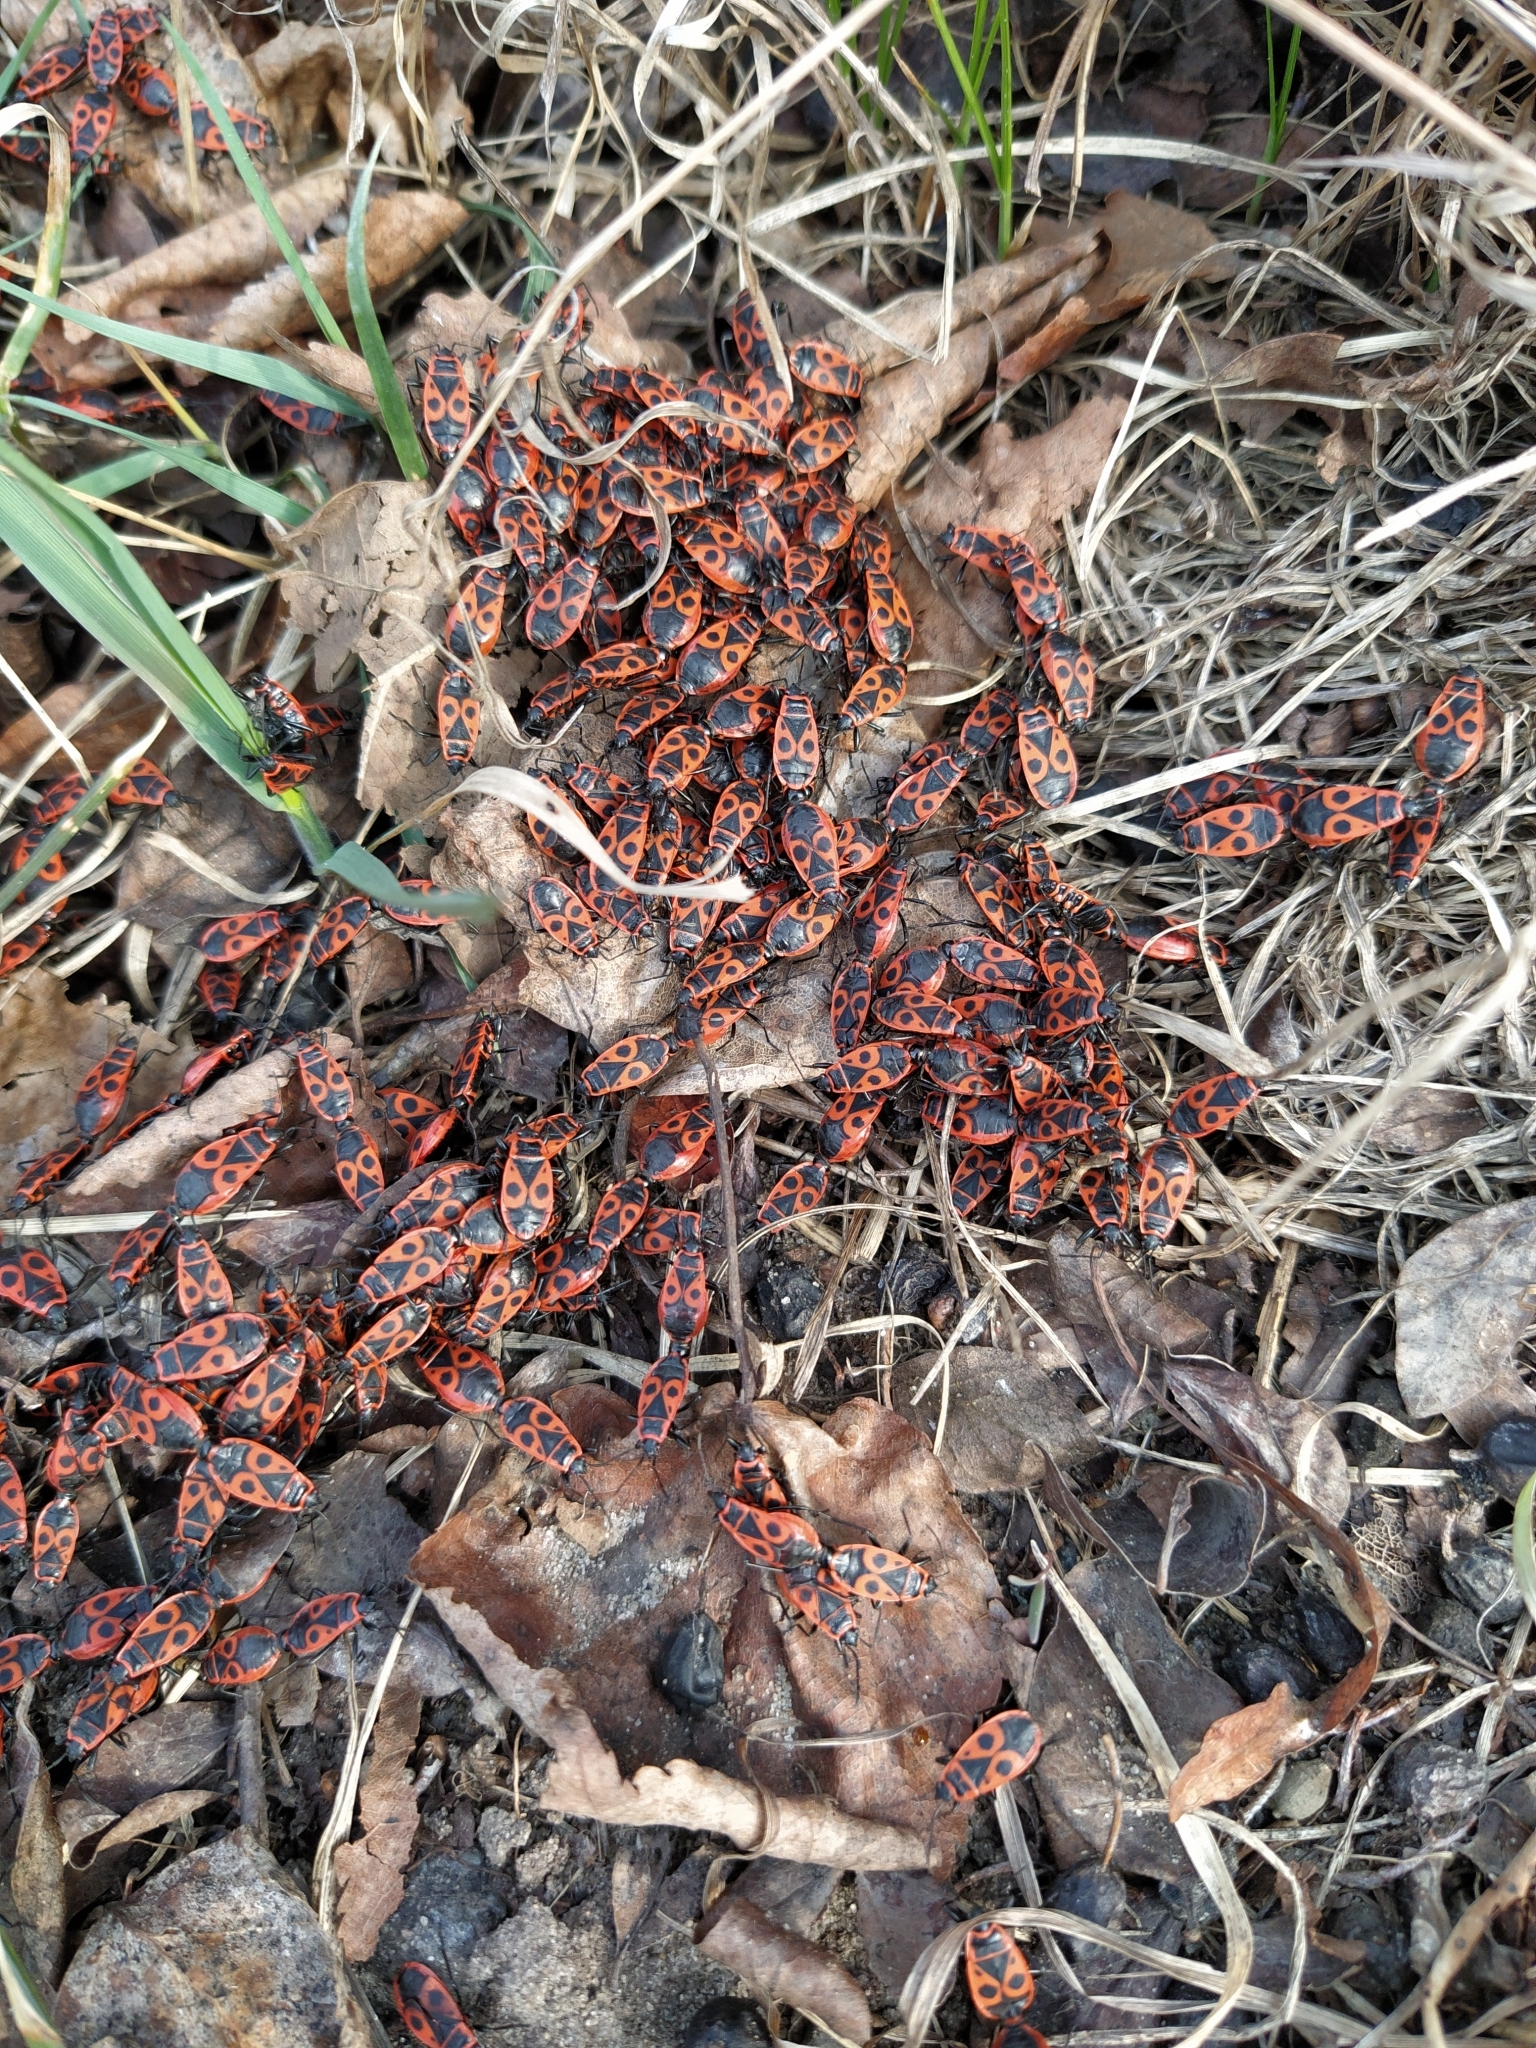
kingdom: Animalia
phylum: Arthropoda
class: Insecta
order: Hemiptera
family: Pyrrhocoridae
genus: Pyrrhocoris
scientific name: Pyrrhocoris apterus
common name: Firebug
